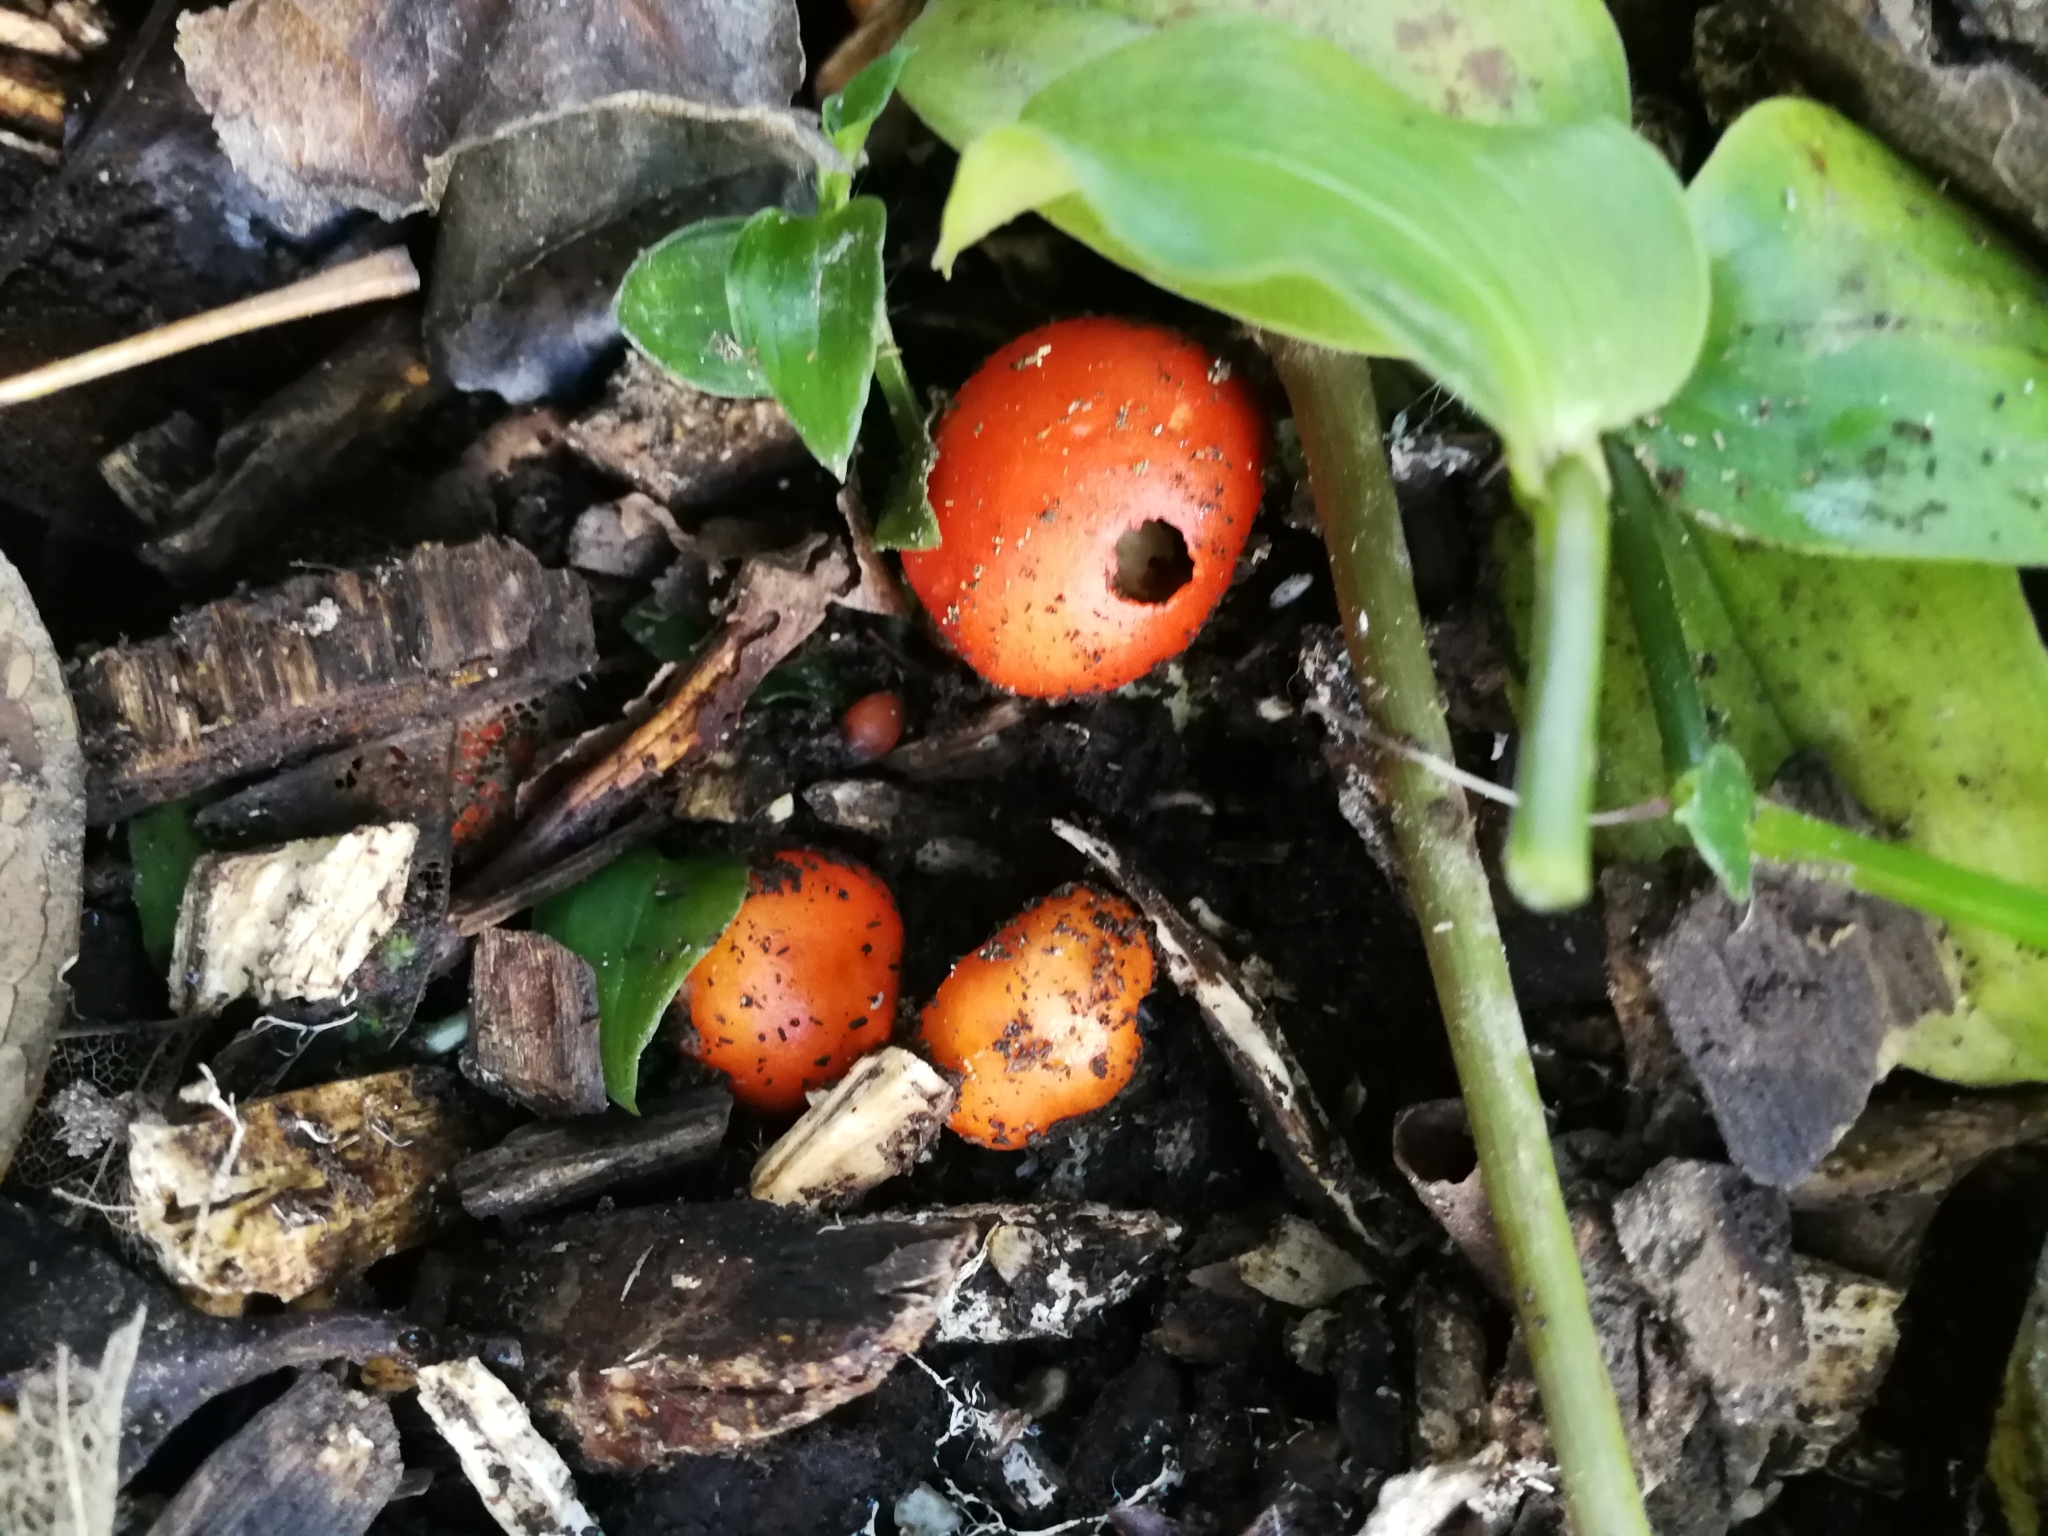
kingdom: Fungi
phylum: Basidiomycota
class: Agaricomycetes
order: Agaricales
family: Strophariaceae
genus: Leratiomyces
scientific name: Leratiomyces erythrocephalus
